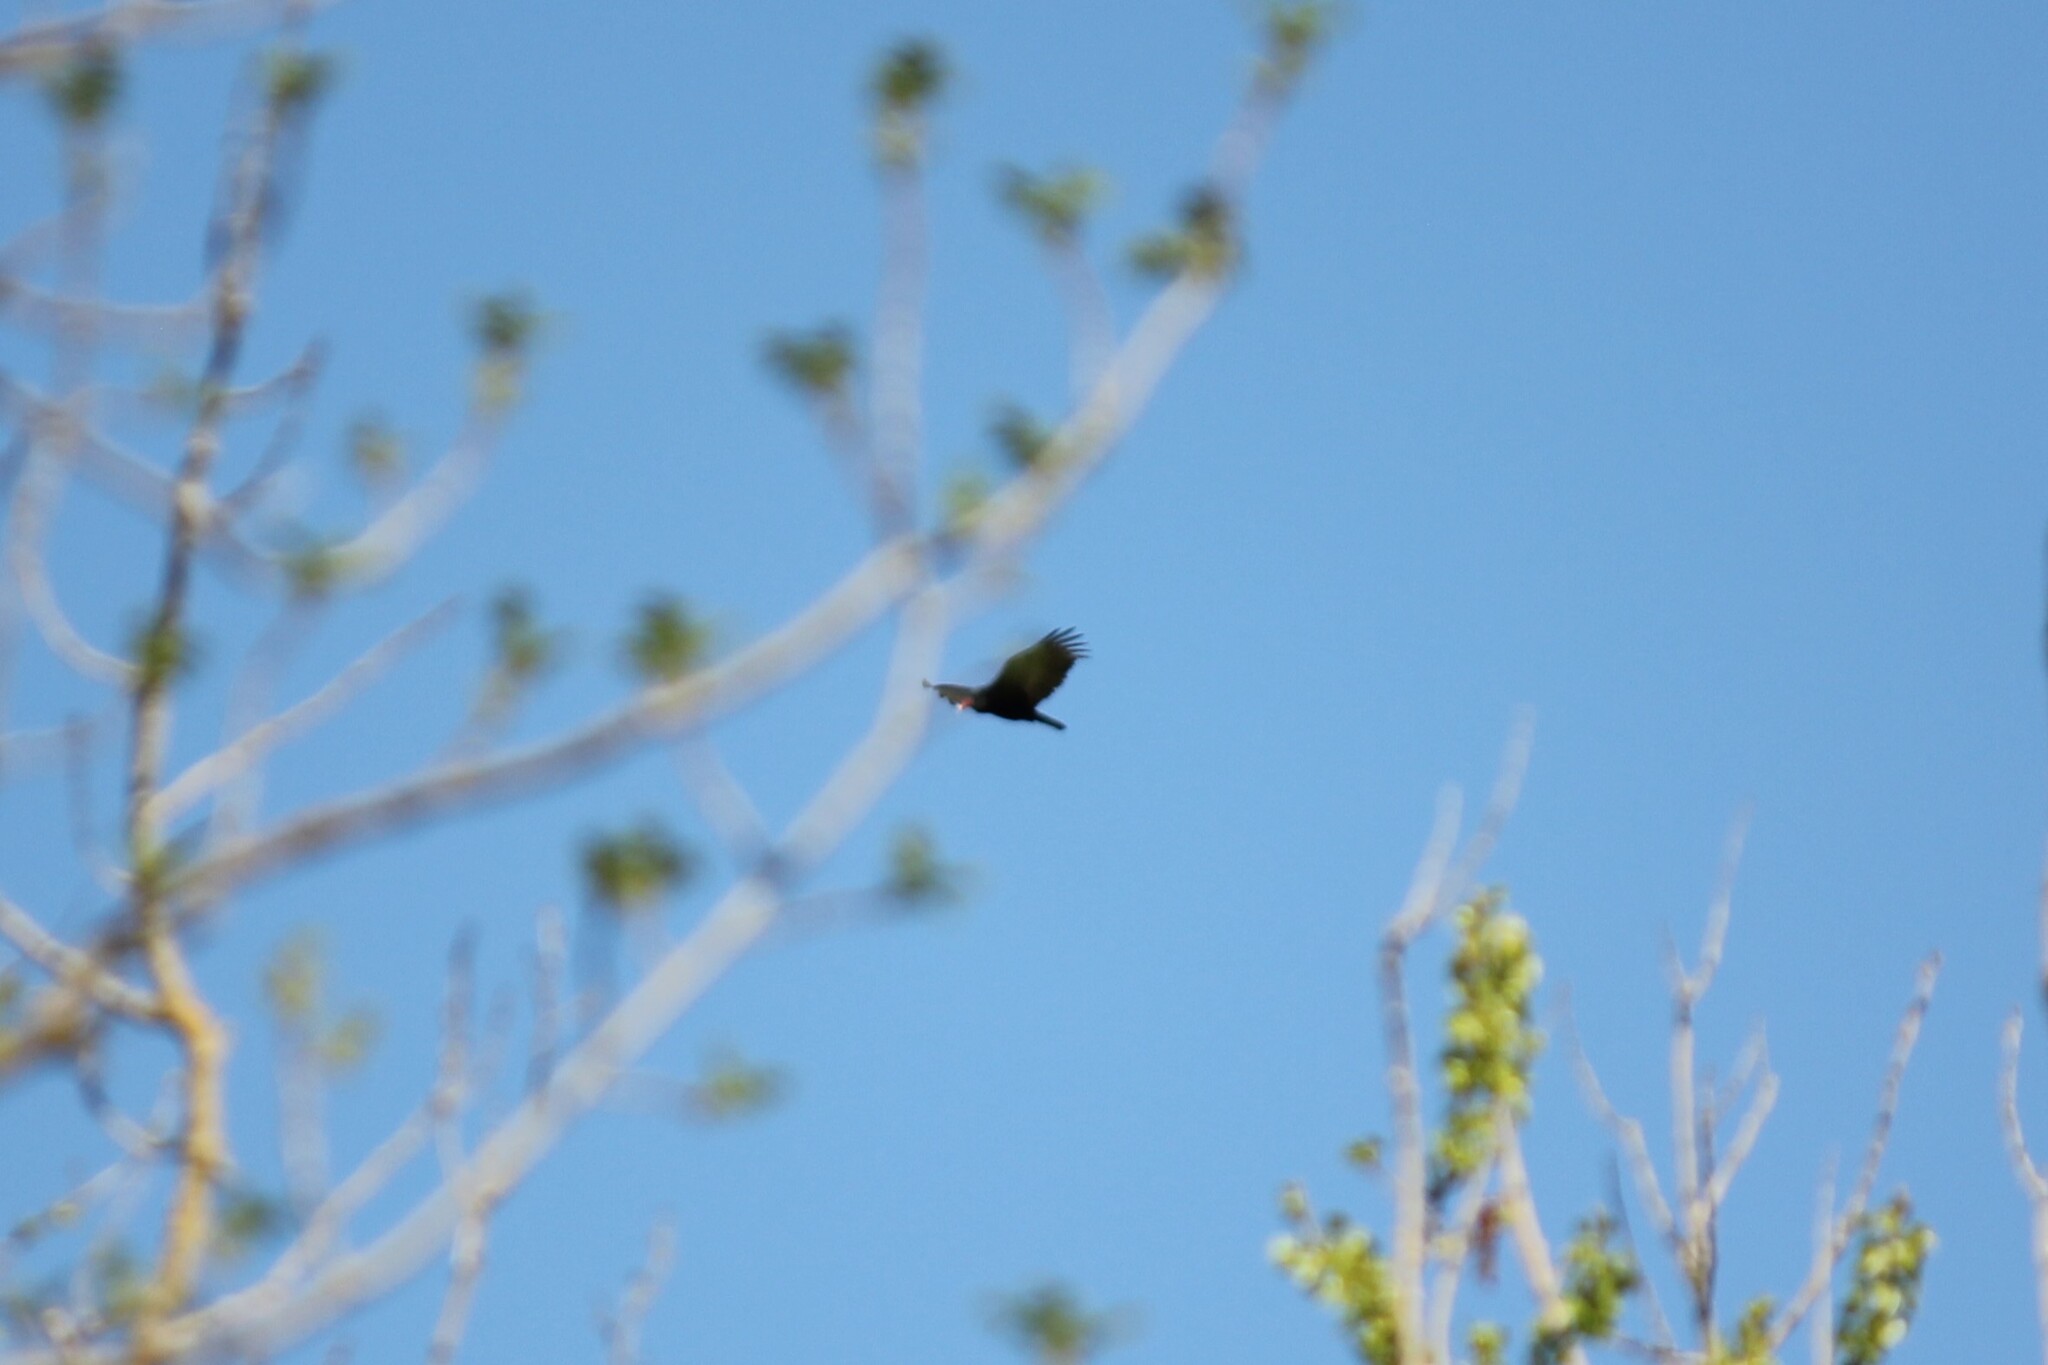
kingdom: Animalia
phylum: Chordata
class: Aves
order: Accipitriformes
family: Cathartidae
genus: Cathartes
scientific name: Cathartes aura
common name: Turkey vulture
